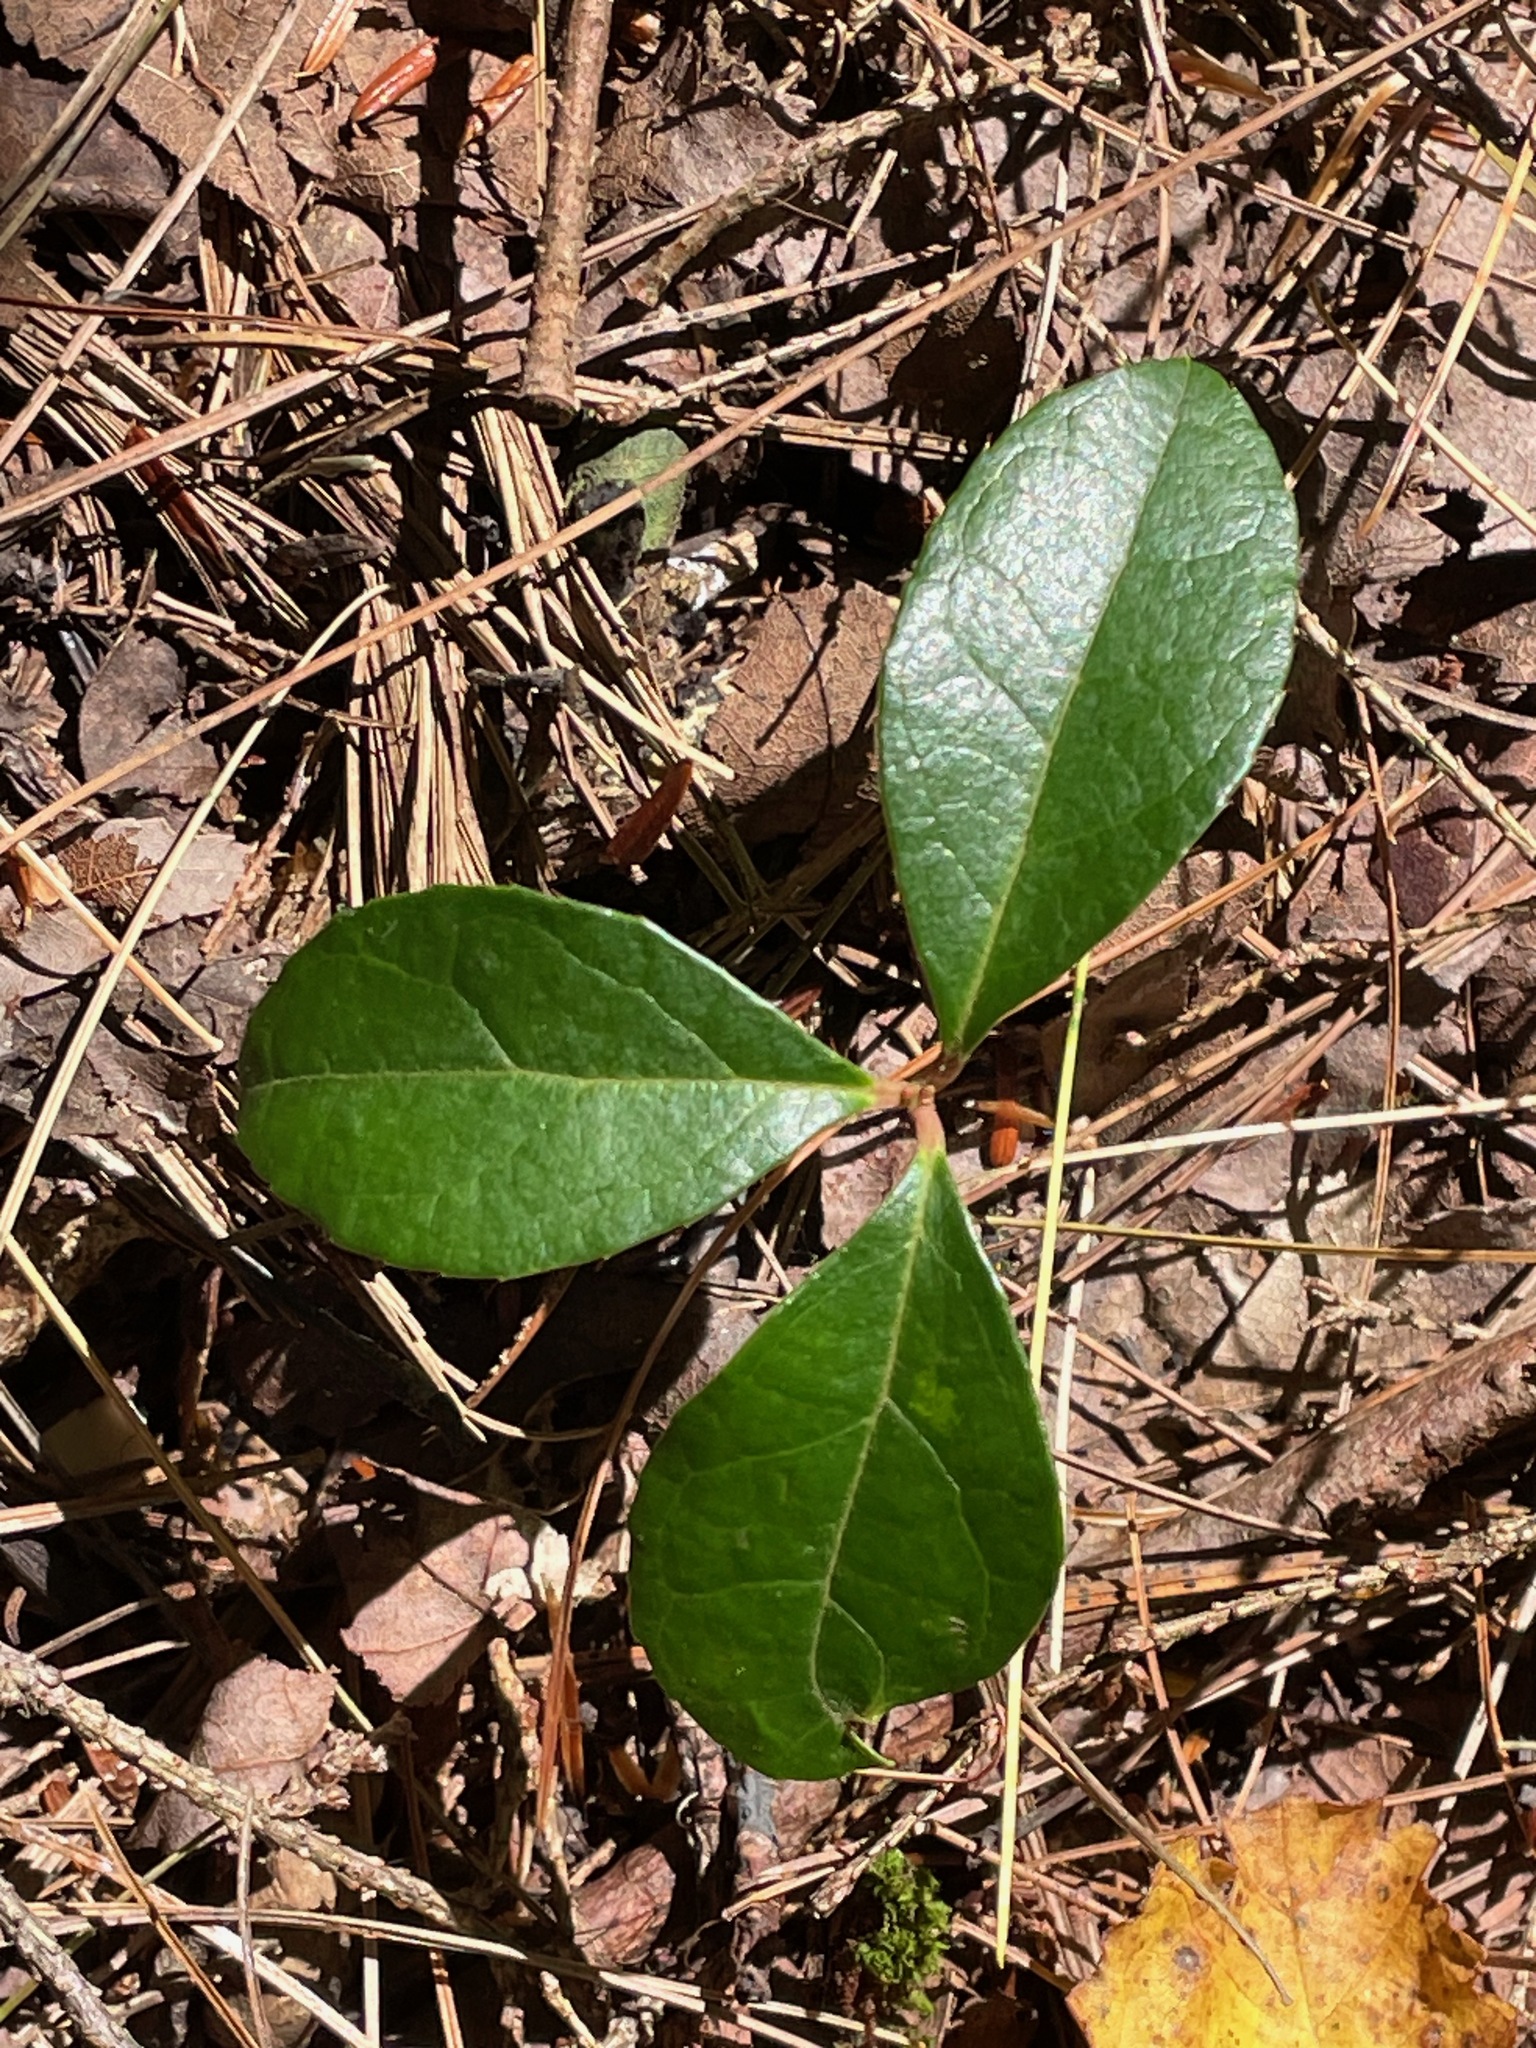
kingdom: Plantae
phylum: Tracheophyta
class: Magnoliopsida
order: Ericales
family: Ericaceae
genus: Gaultheria
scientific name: Gaultheria procumbens
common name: Checkerberry
